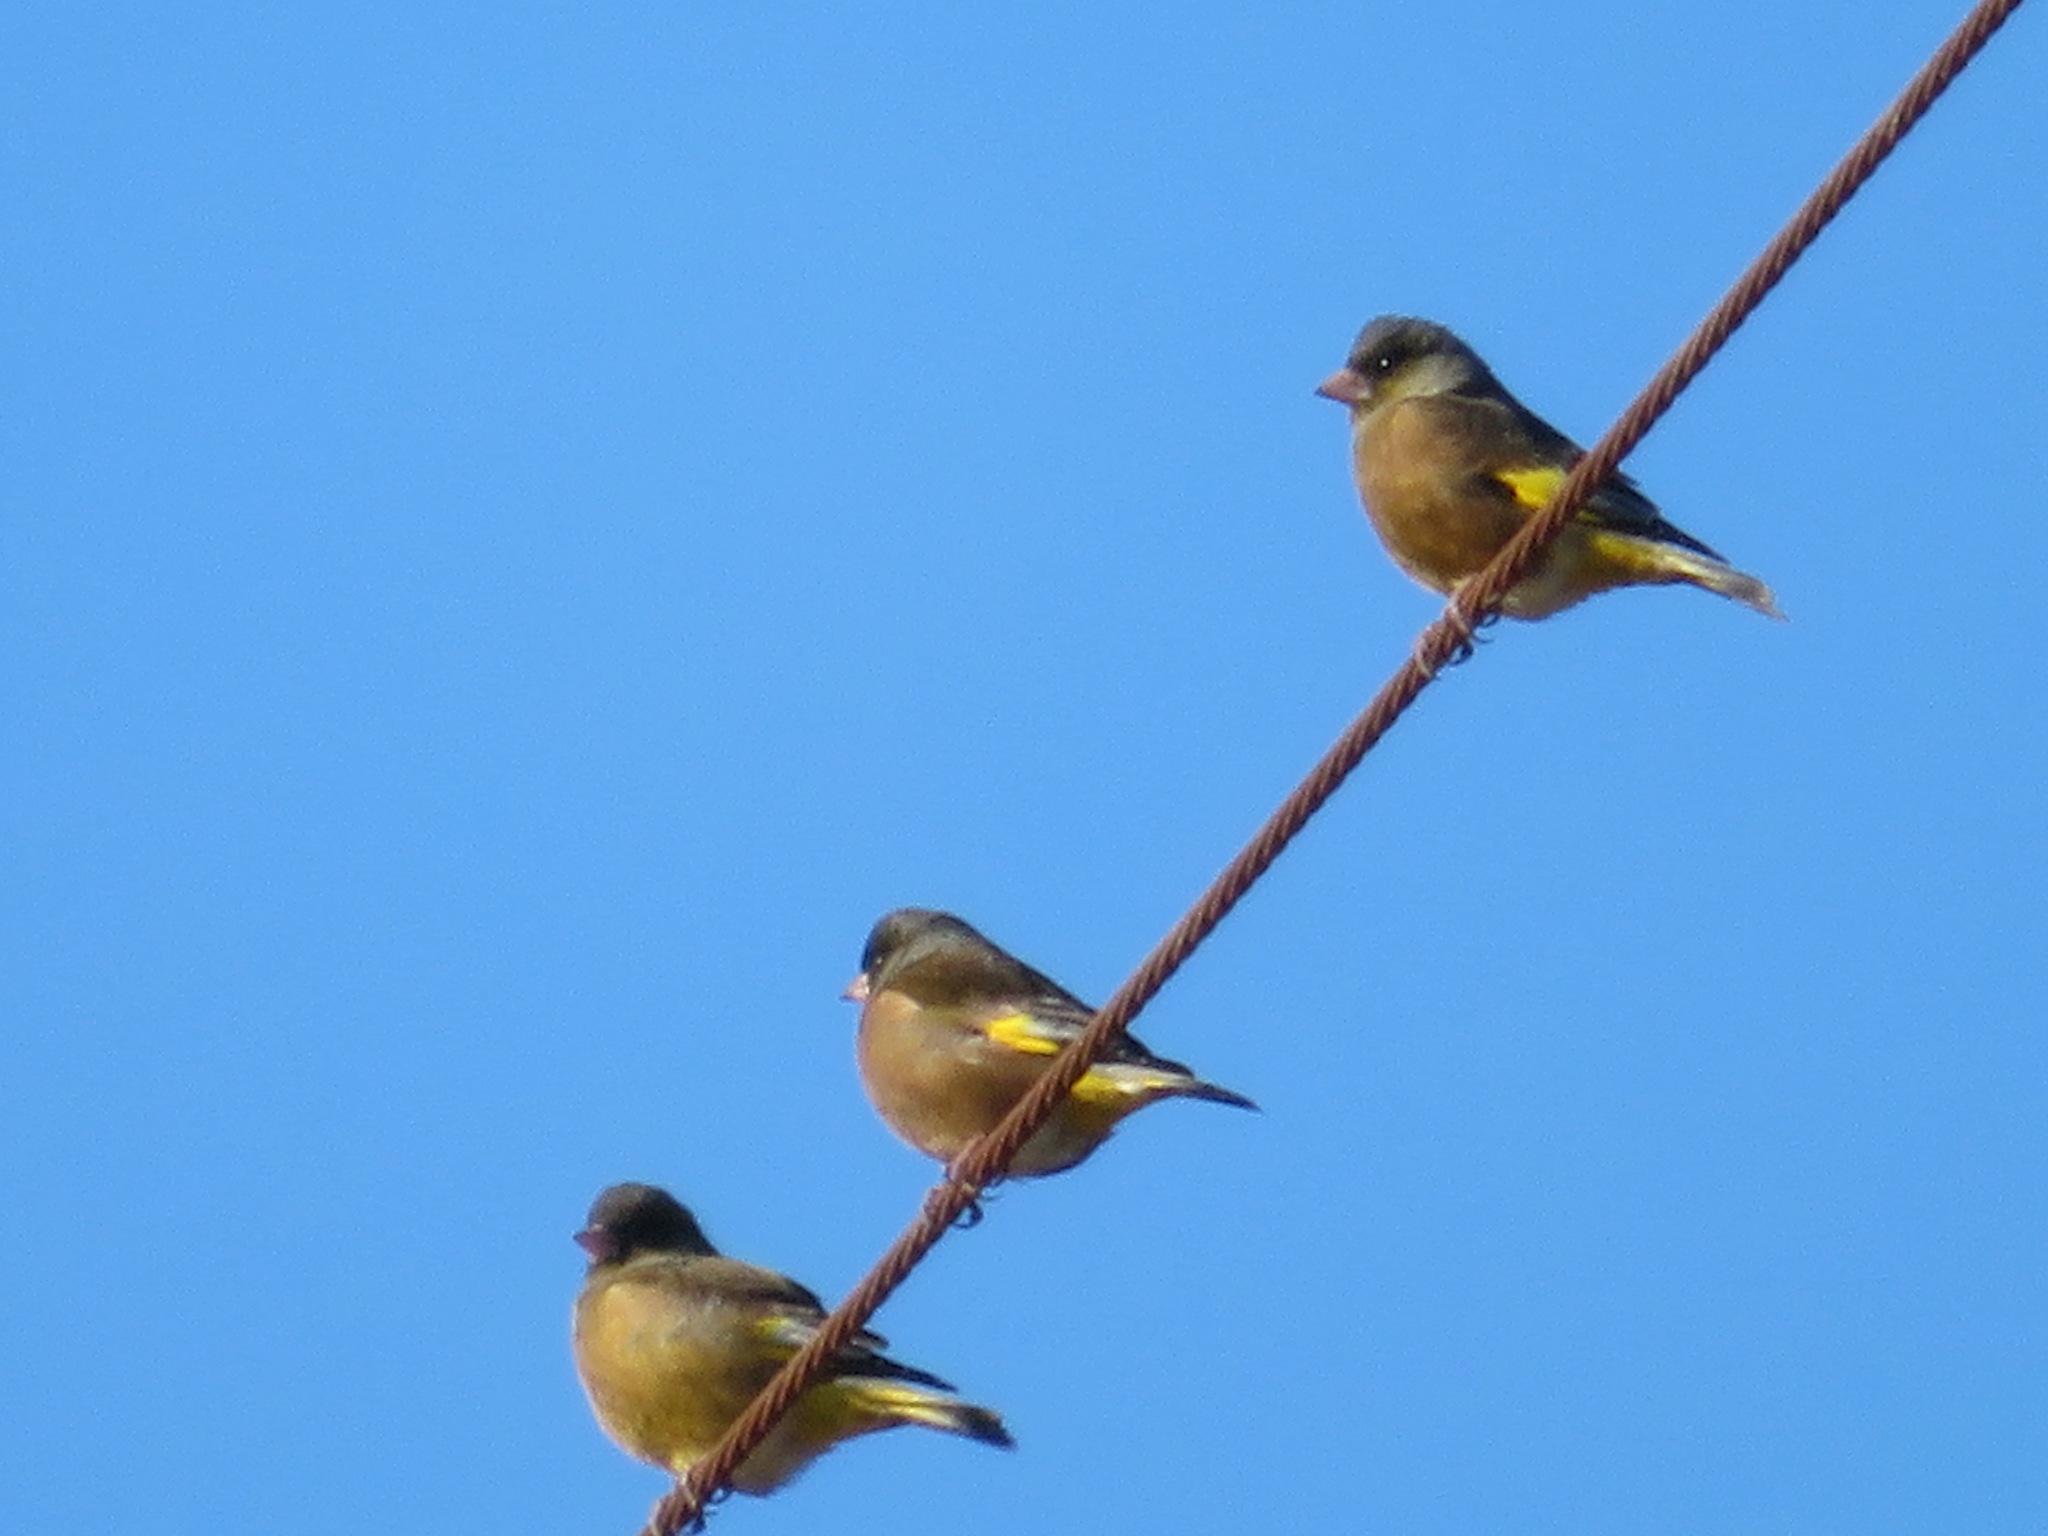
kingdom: Plantae
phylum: Tracheophyta
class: Liliopsida
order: Poales
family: Poaceae
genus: Chloris
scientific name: Chloris sinica
